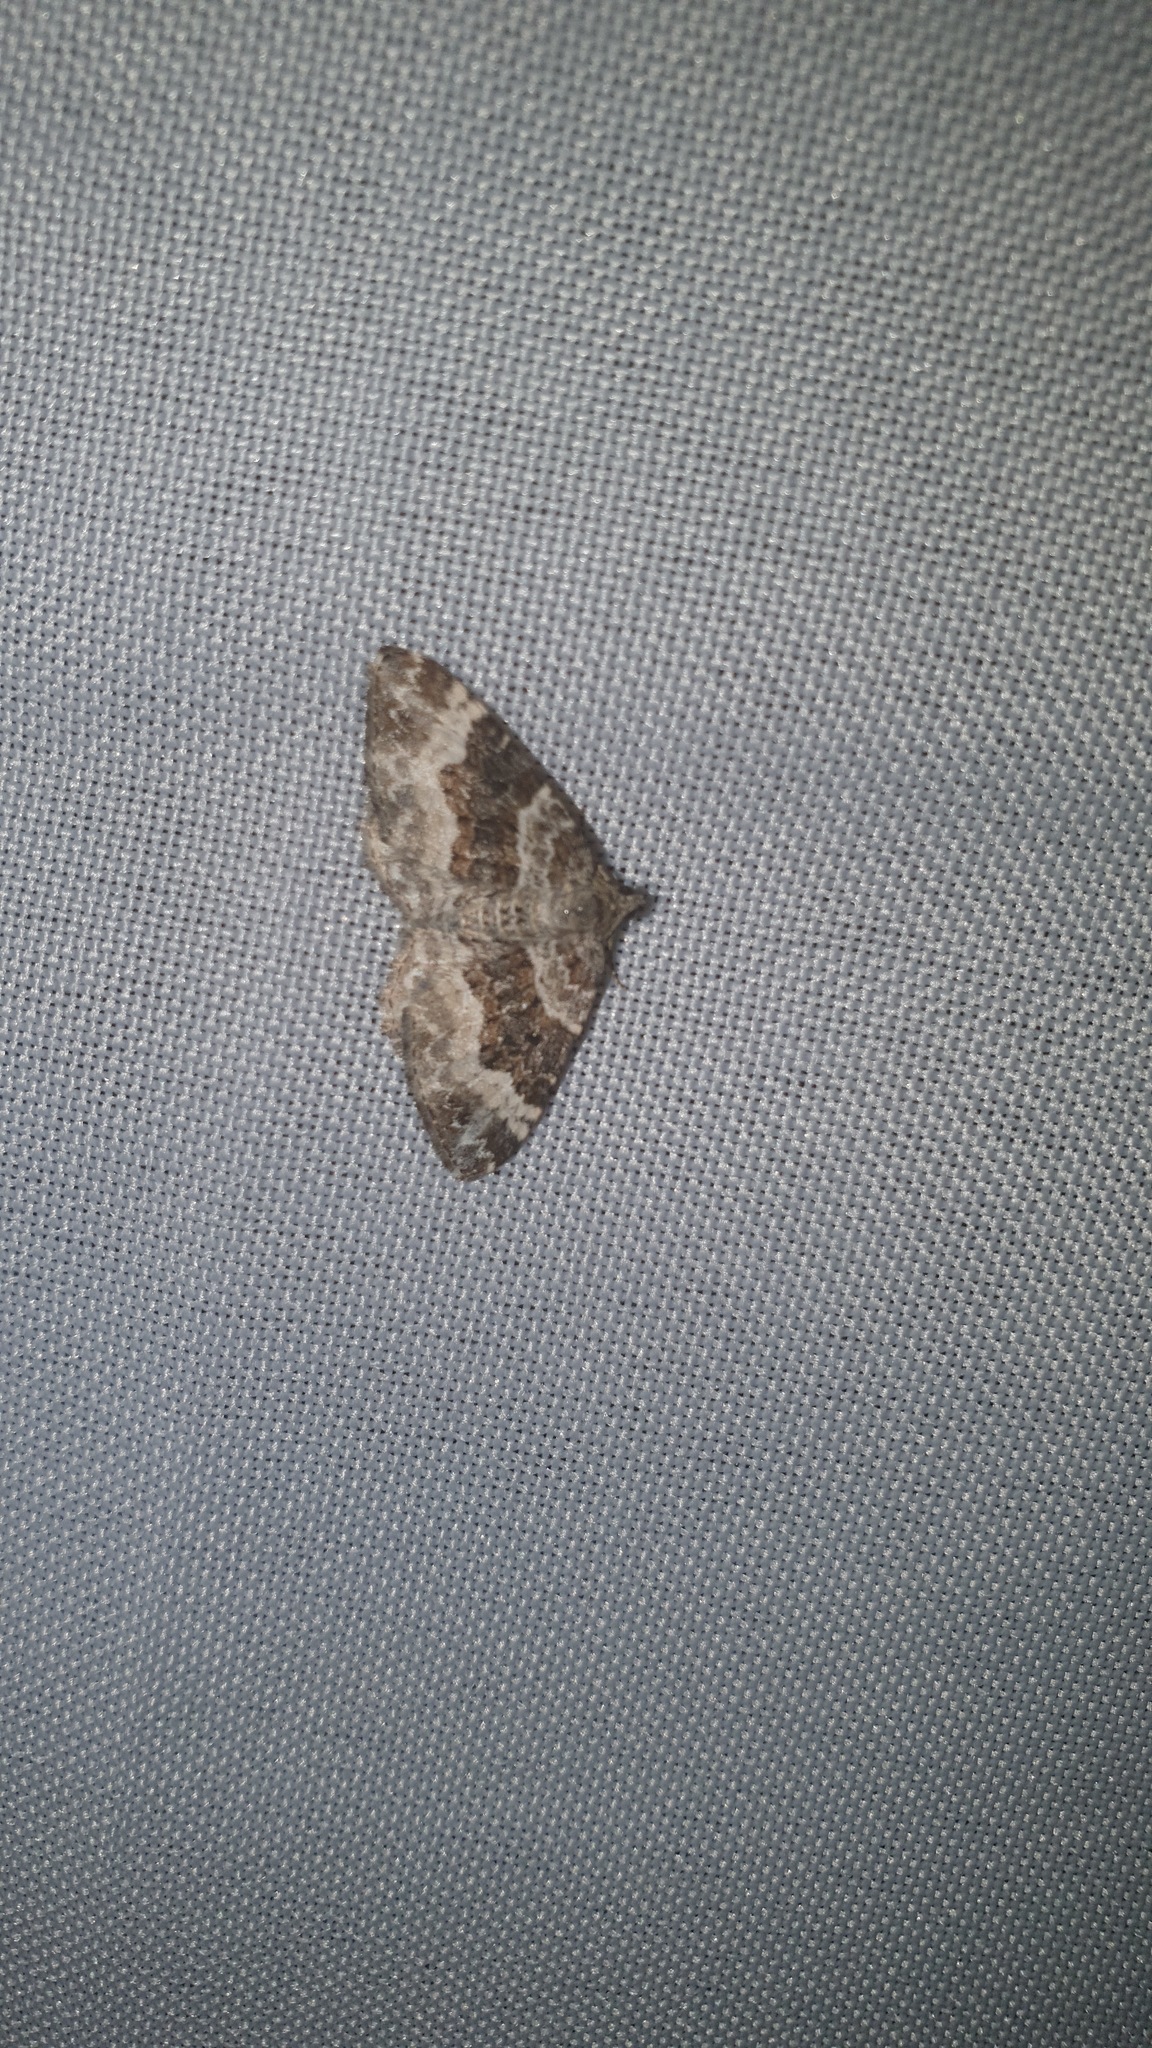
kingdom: Animalia
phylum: Arthropoda
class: Insecta
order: Lepidoptera
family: Geometridae
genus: Epirrhoe
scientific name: Epirrhoe alternata
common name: Common carpet
